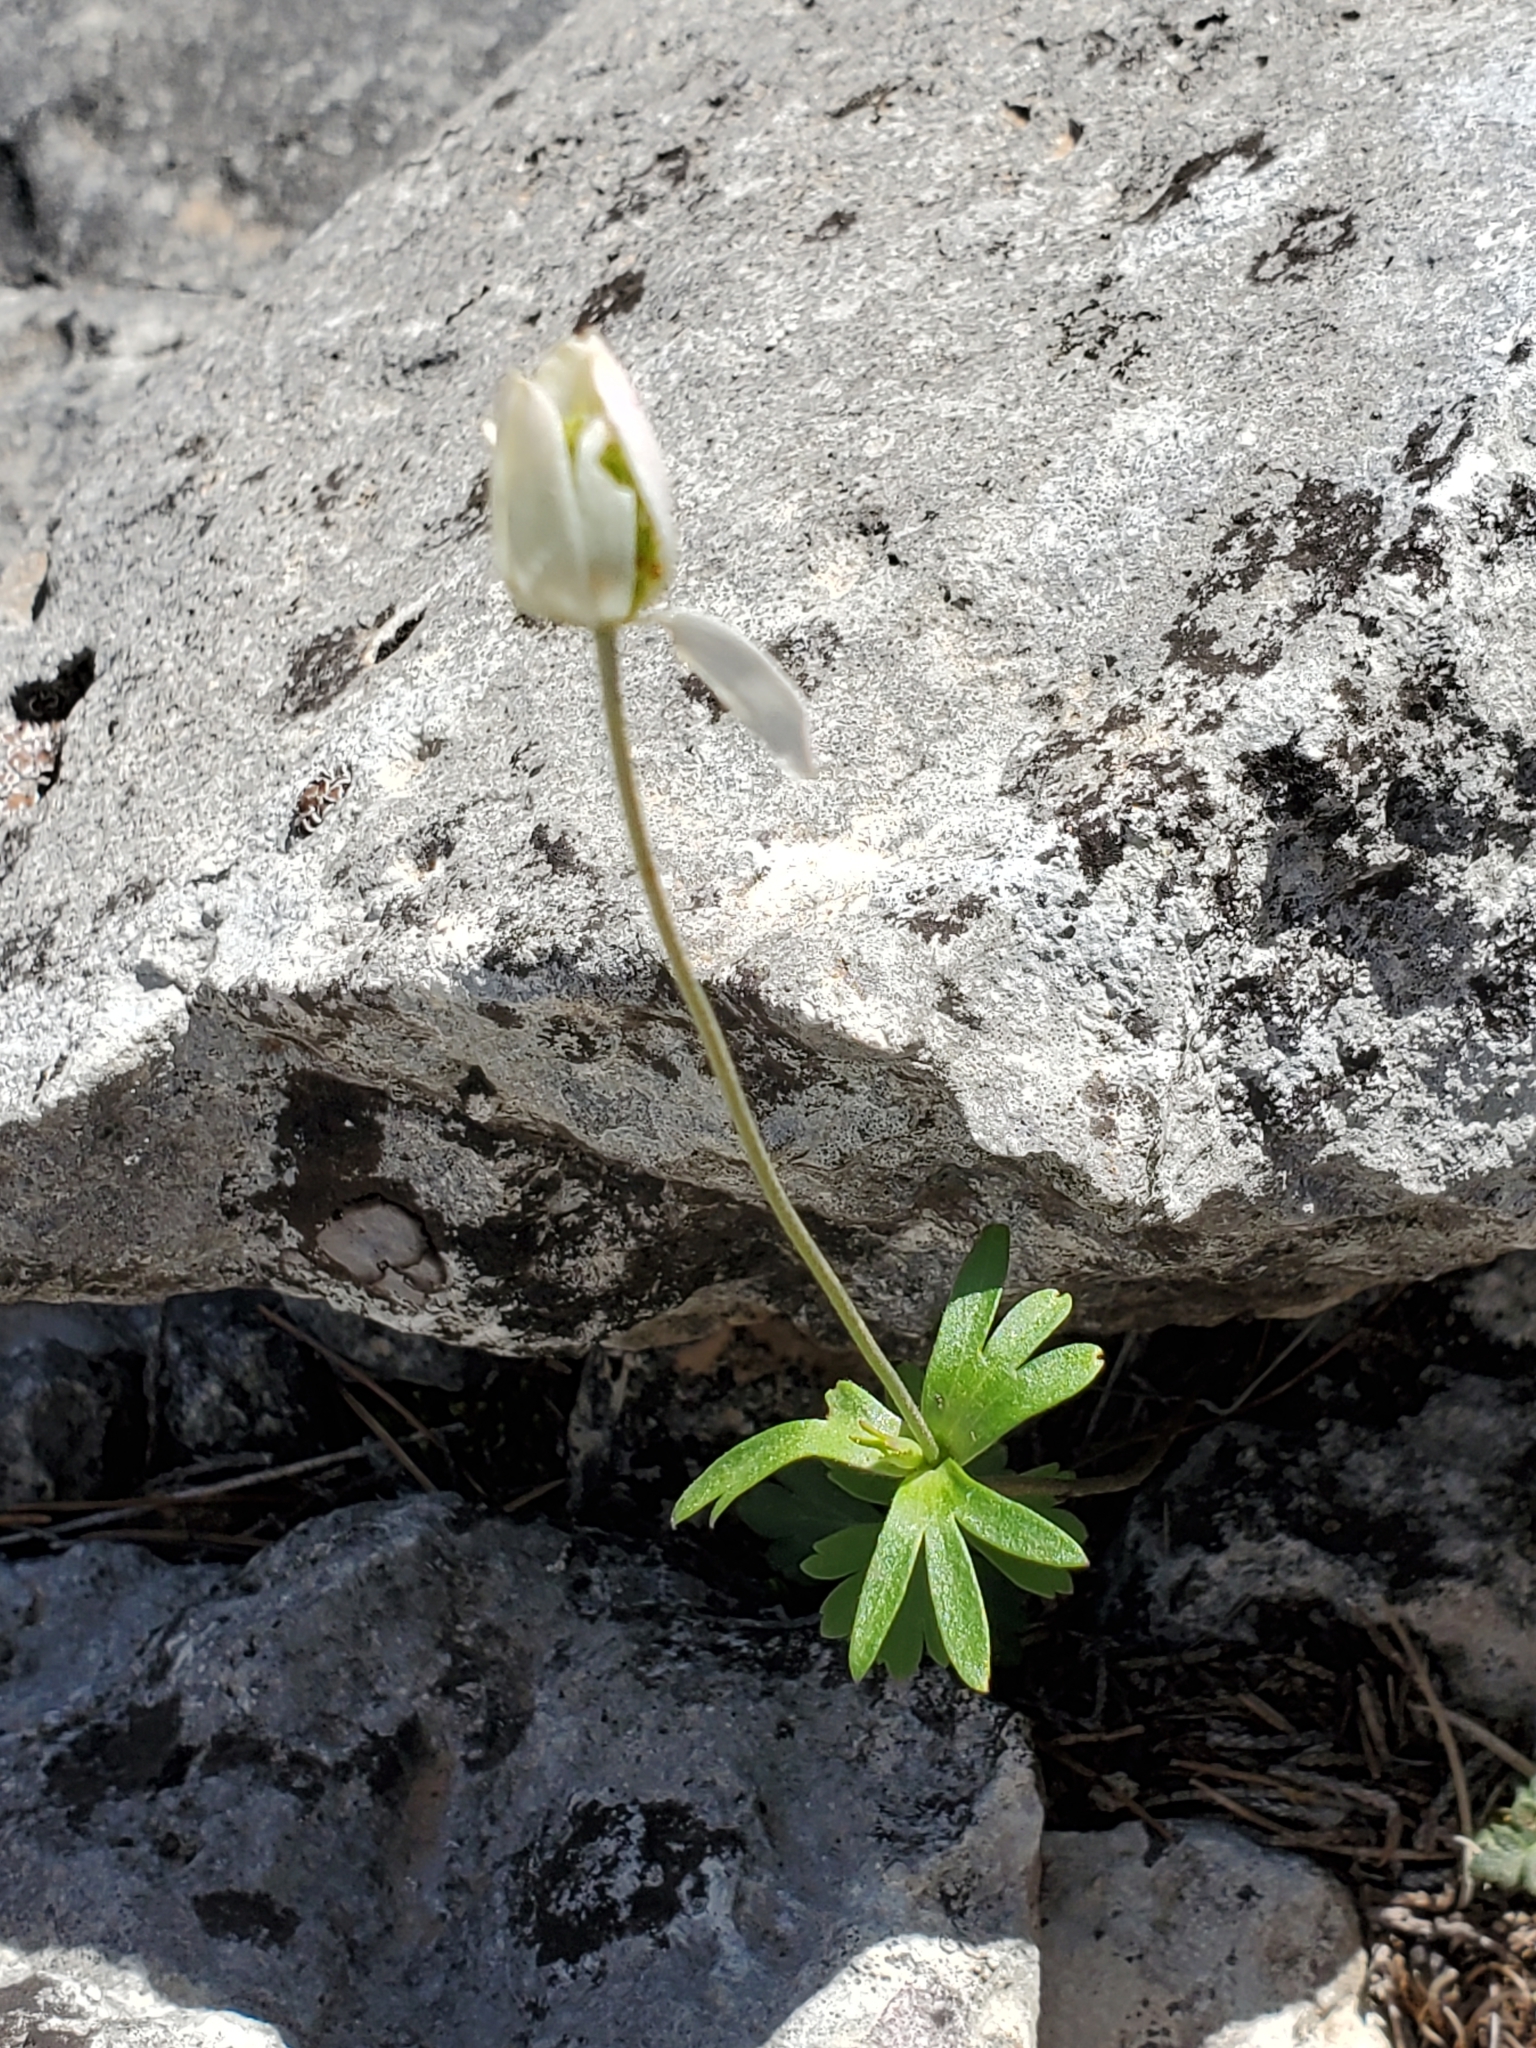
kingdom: Plantae
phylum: Tracheophyta
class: Magnoliopsida
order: Ranunculales
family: Ranunculaceae
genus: Anemone
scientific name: Anemone edwardsiana
